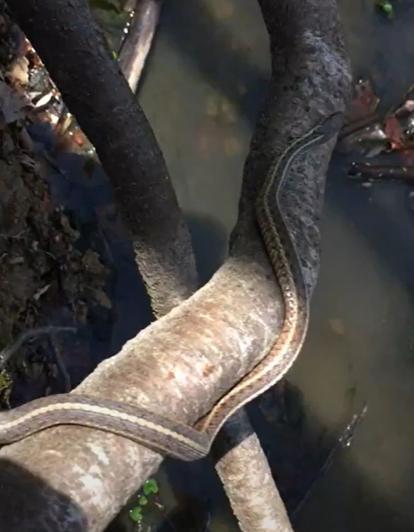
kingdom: Animalia
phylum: Chordata
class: Squamata
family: Colubridae
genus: Thamnophis
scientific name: Thamnophis sirtalis
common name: Common garter snake
